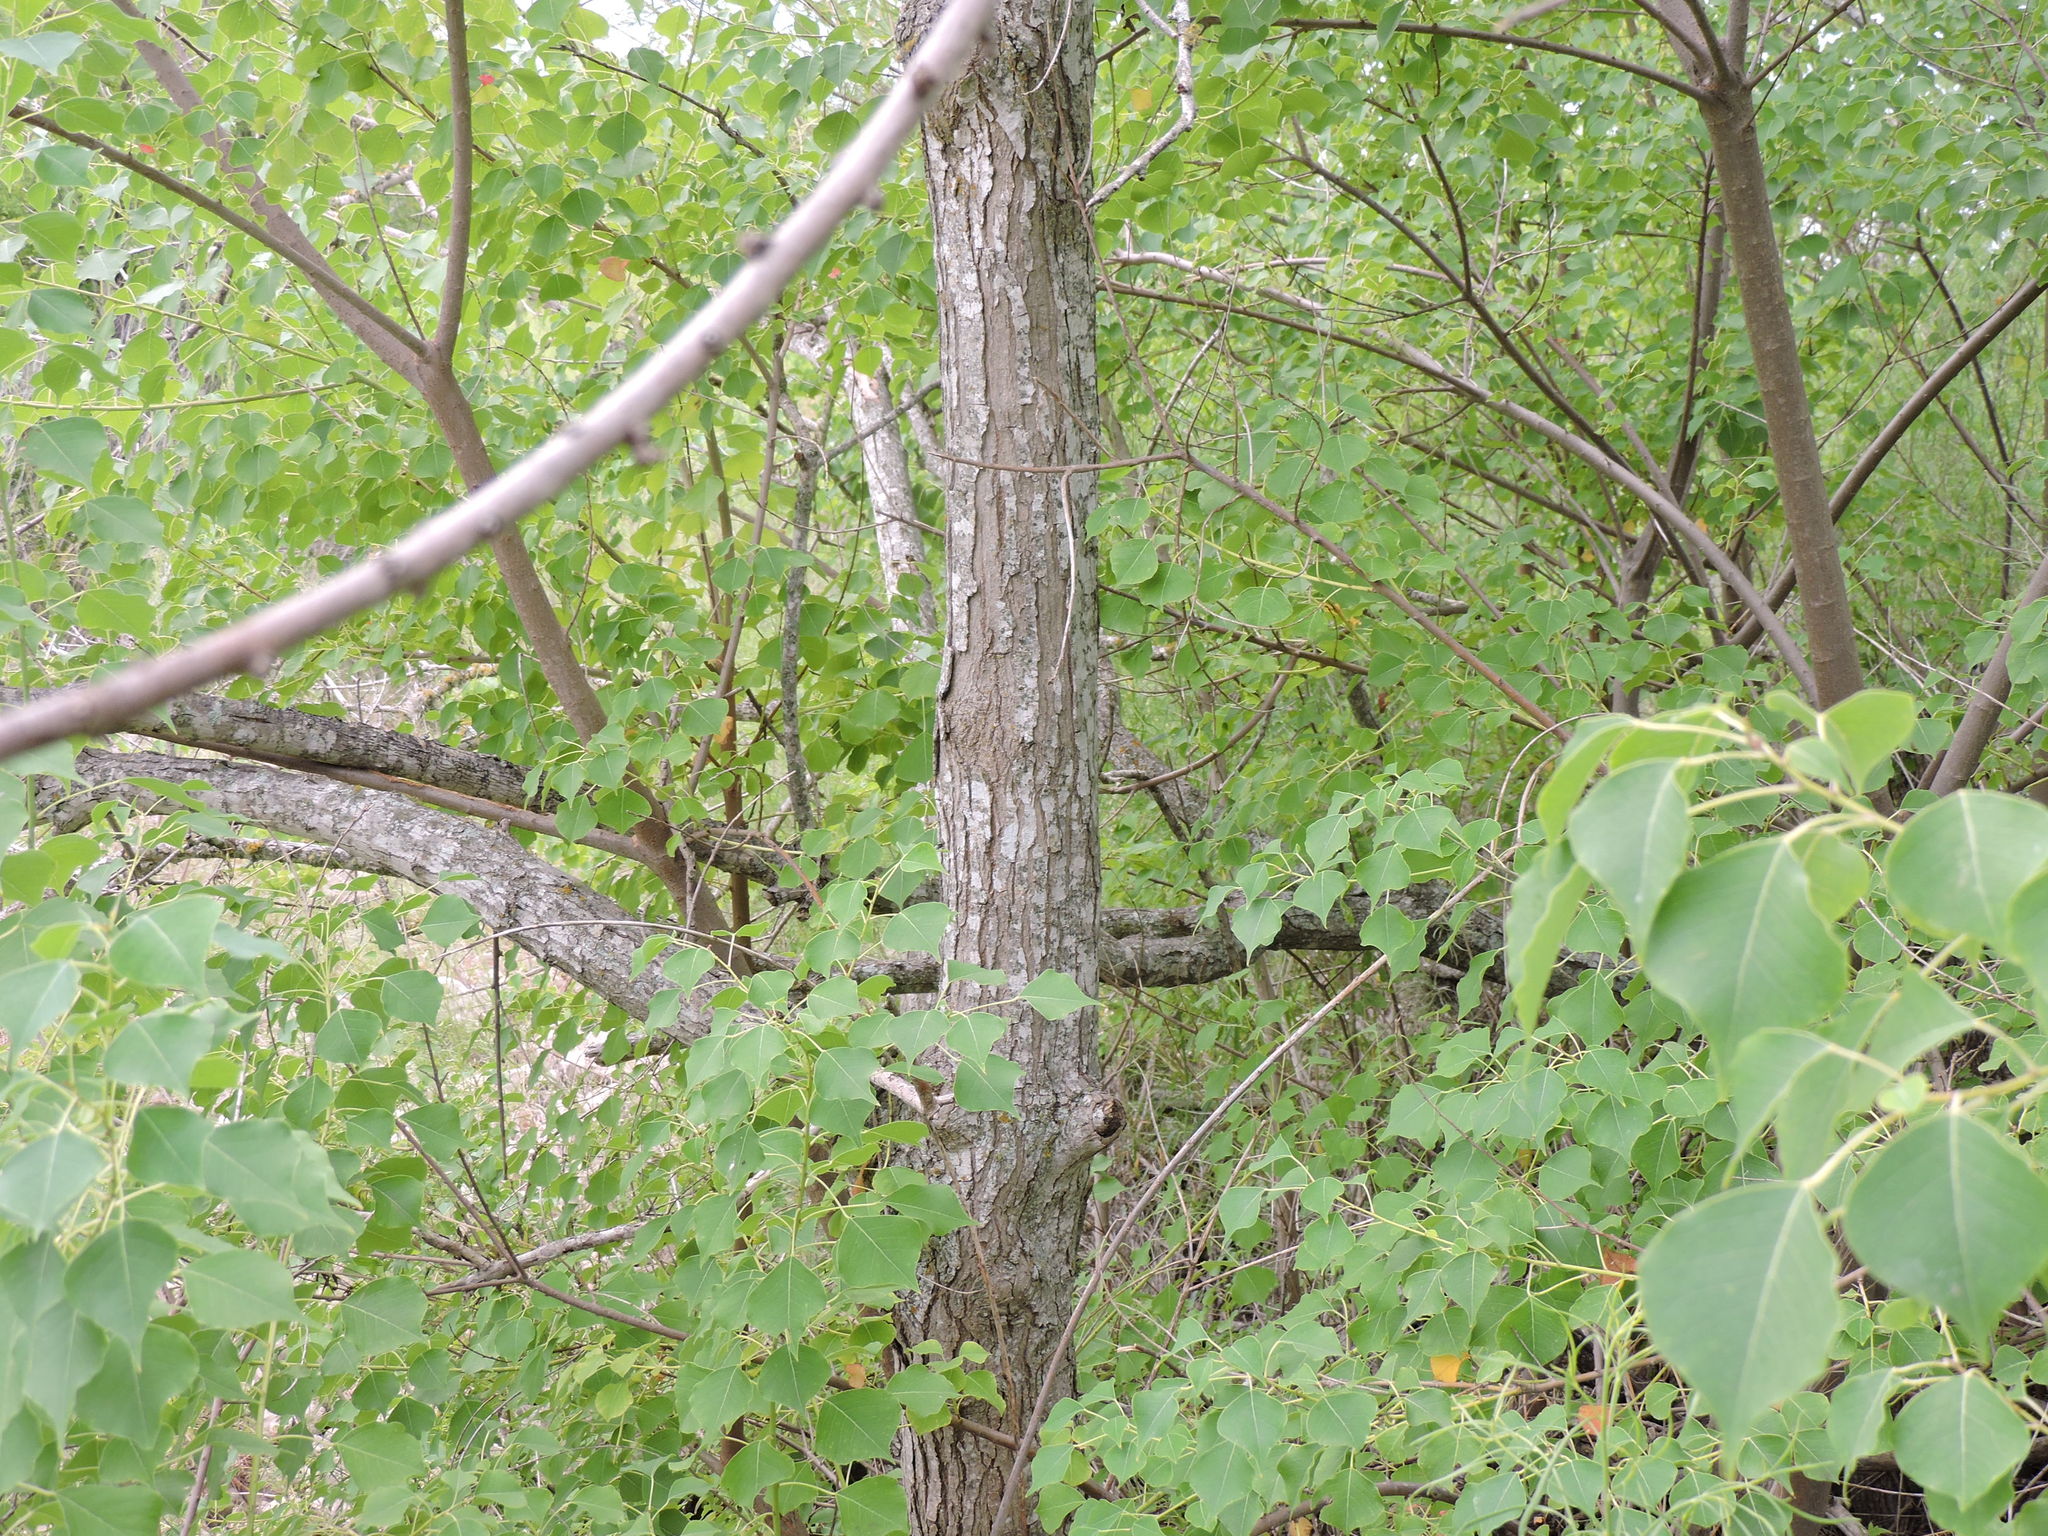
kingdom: Plantae
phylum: Tracheophyta
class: Magnoliopsida
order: Malpighiales
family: Euphorbiaceae
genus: Triadica
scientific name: Triadica sebifera
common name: Chinese tallow
